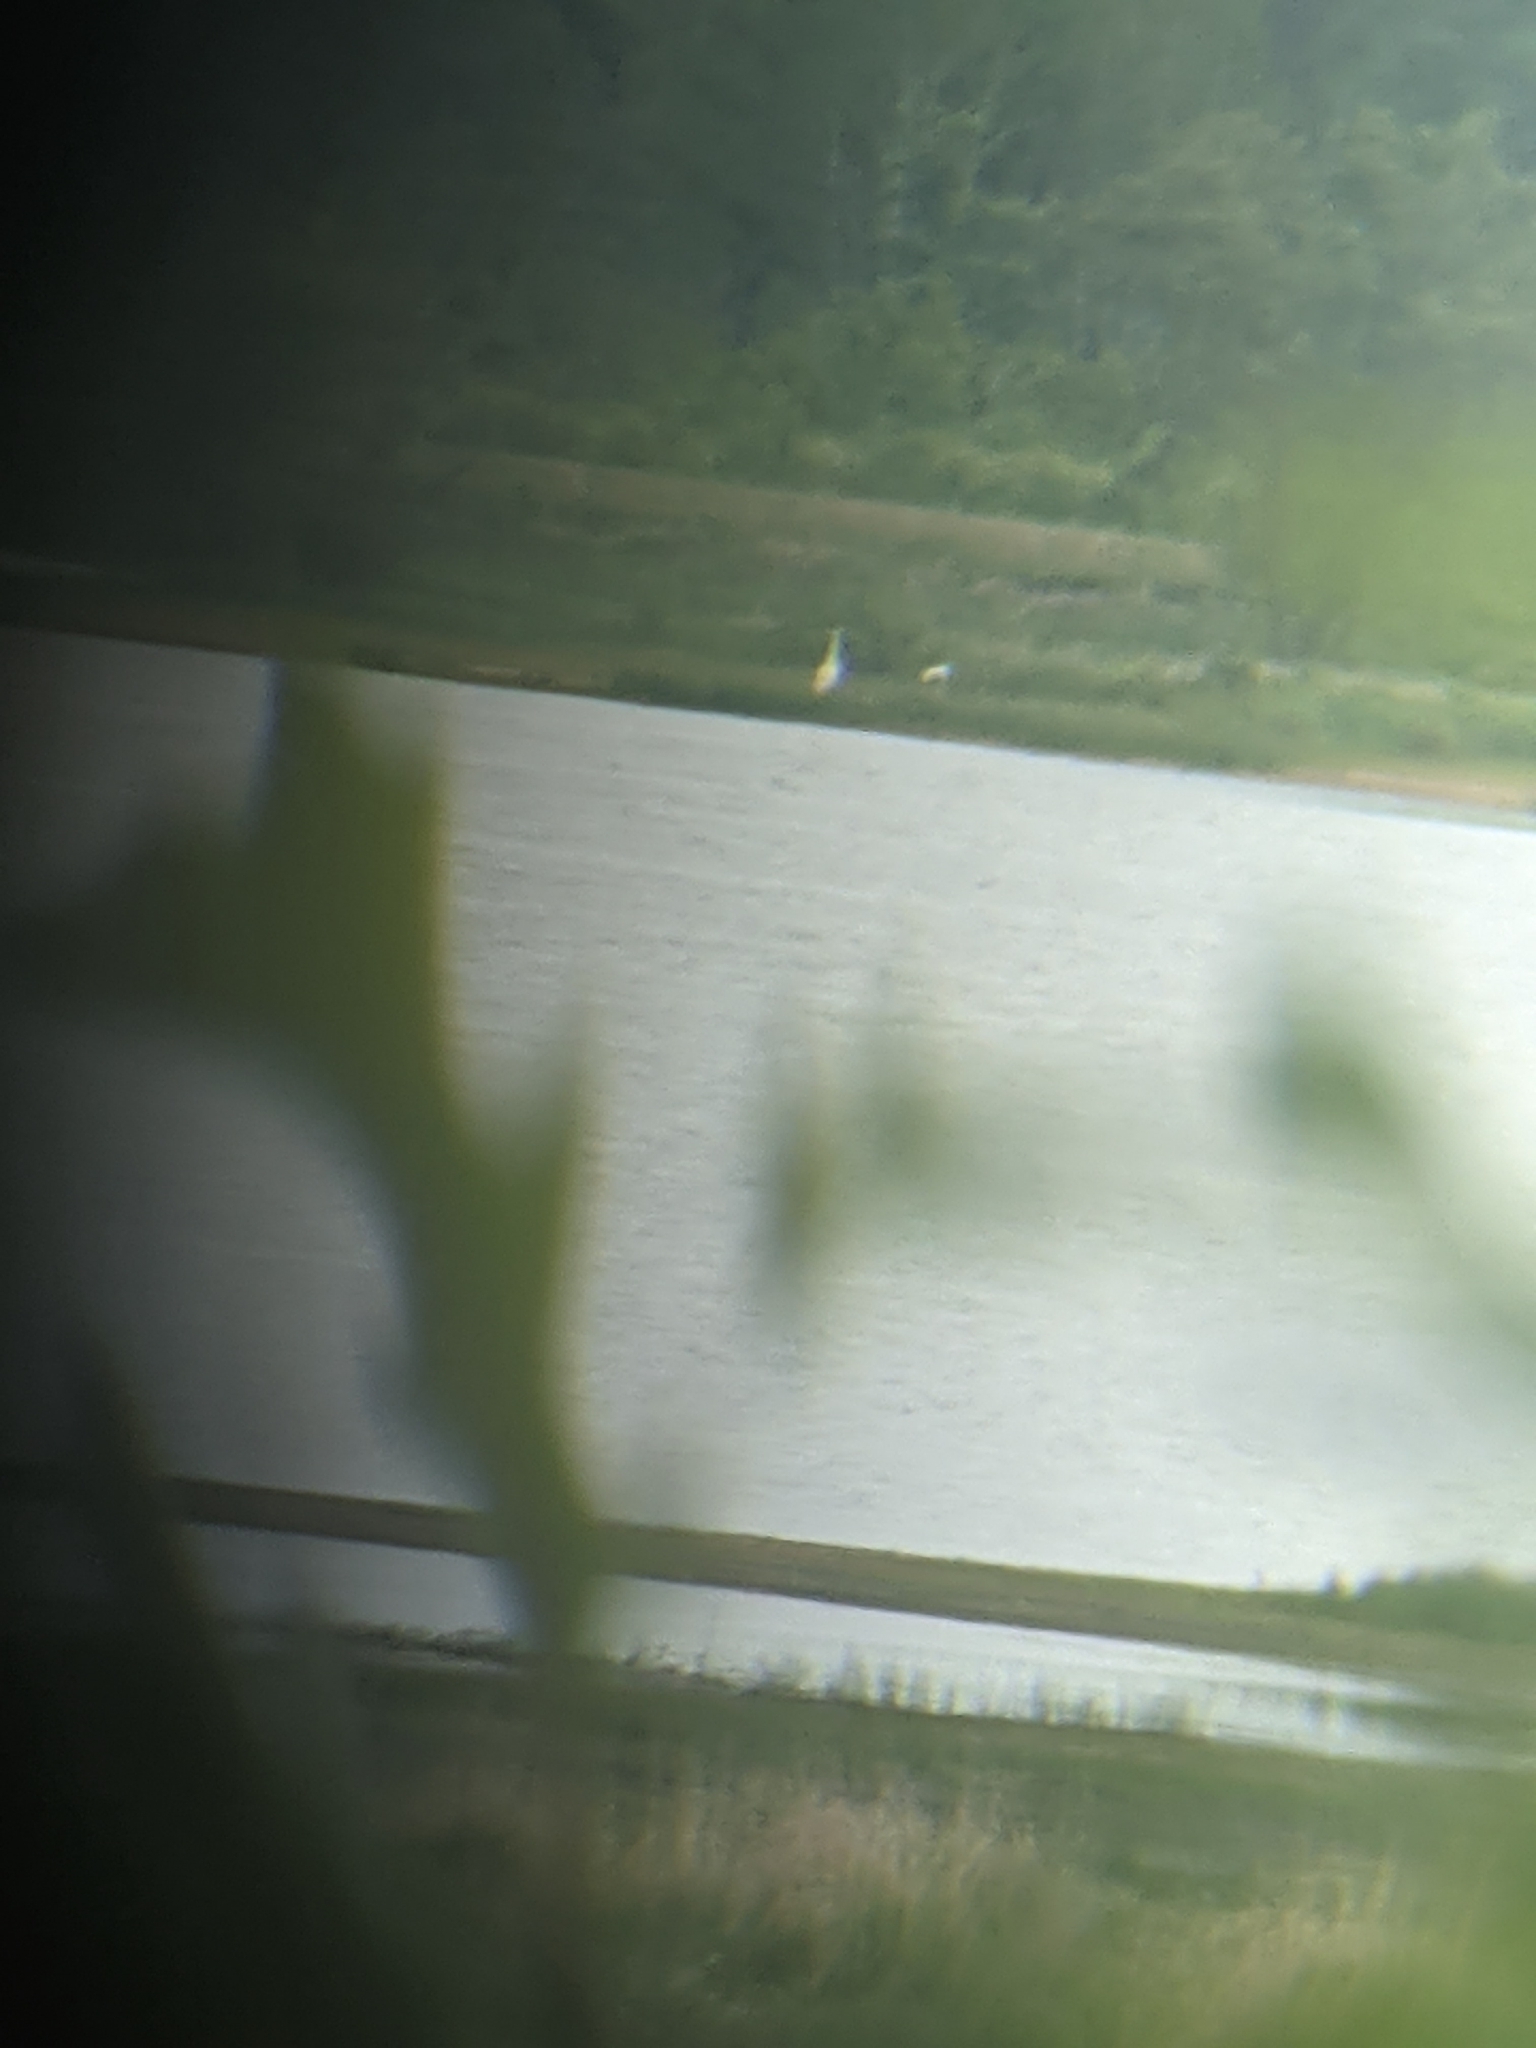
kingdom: Animalia
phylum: Chordata
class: Aves
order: Gruiformes
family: Gruidae
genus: Grus
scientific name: Grus americana
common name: Whooping crane
